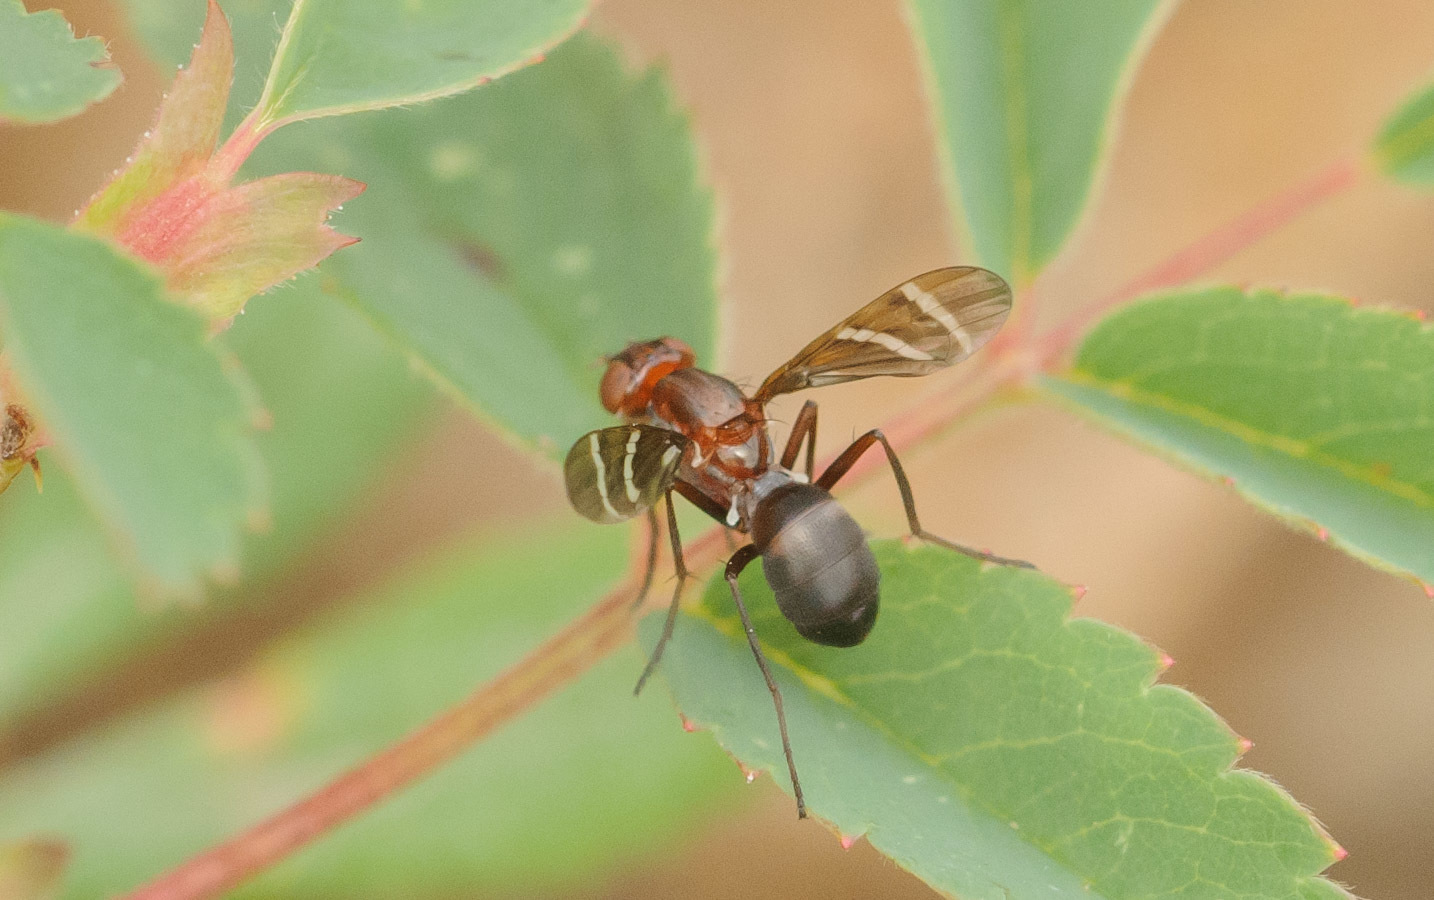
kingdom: Animalia
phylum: Arthropoda
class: Insecta
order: Diptera
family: Ulidiidae
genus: Tritoxa
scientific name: Tritoxa cuneata
